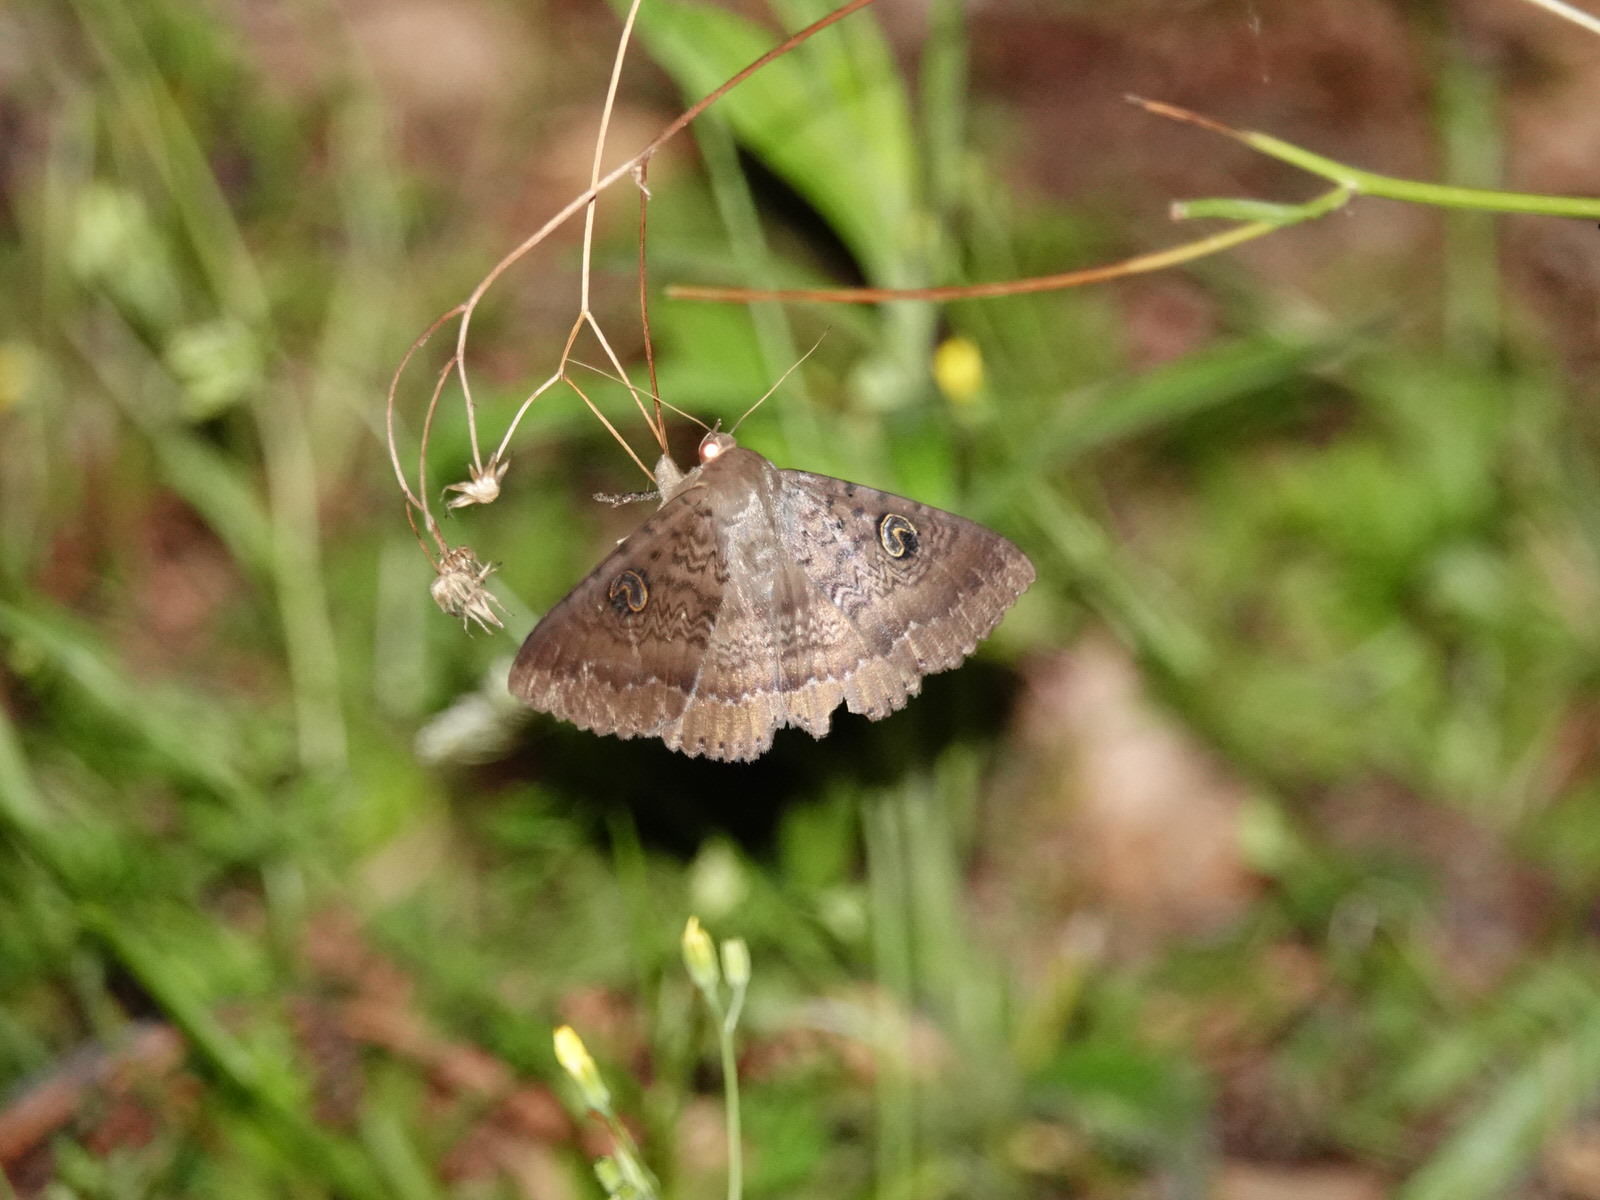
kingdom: Animalia
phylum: Arthropoda
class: Insecta
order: Lepidoptera
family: Erebidae
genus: Dasypodia
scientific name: Dasypodia cymatodes
